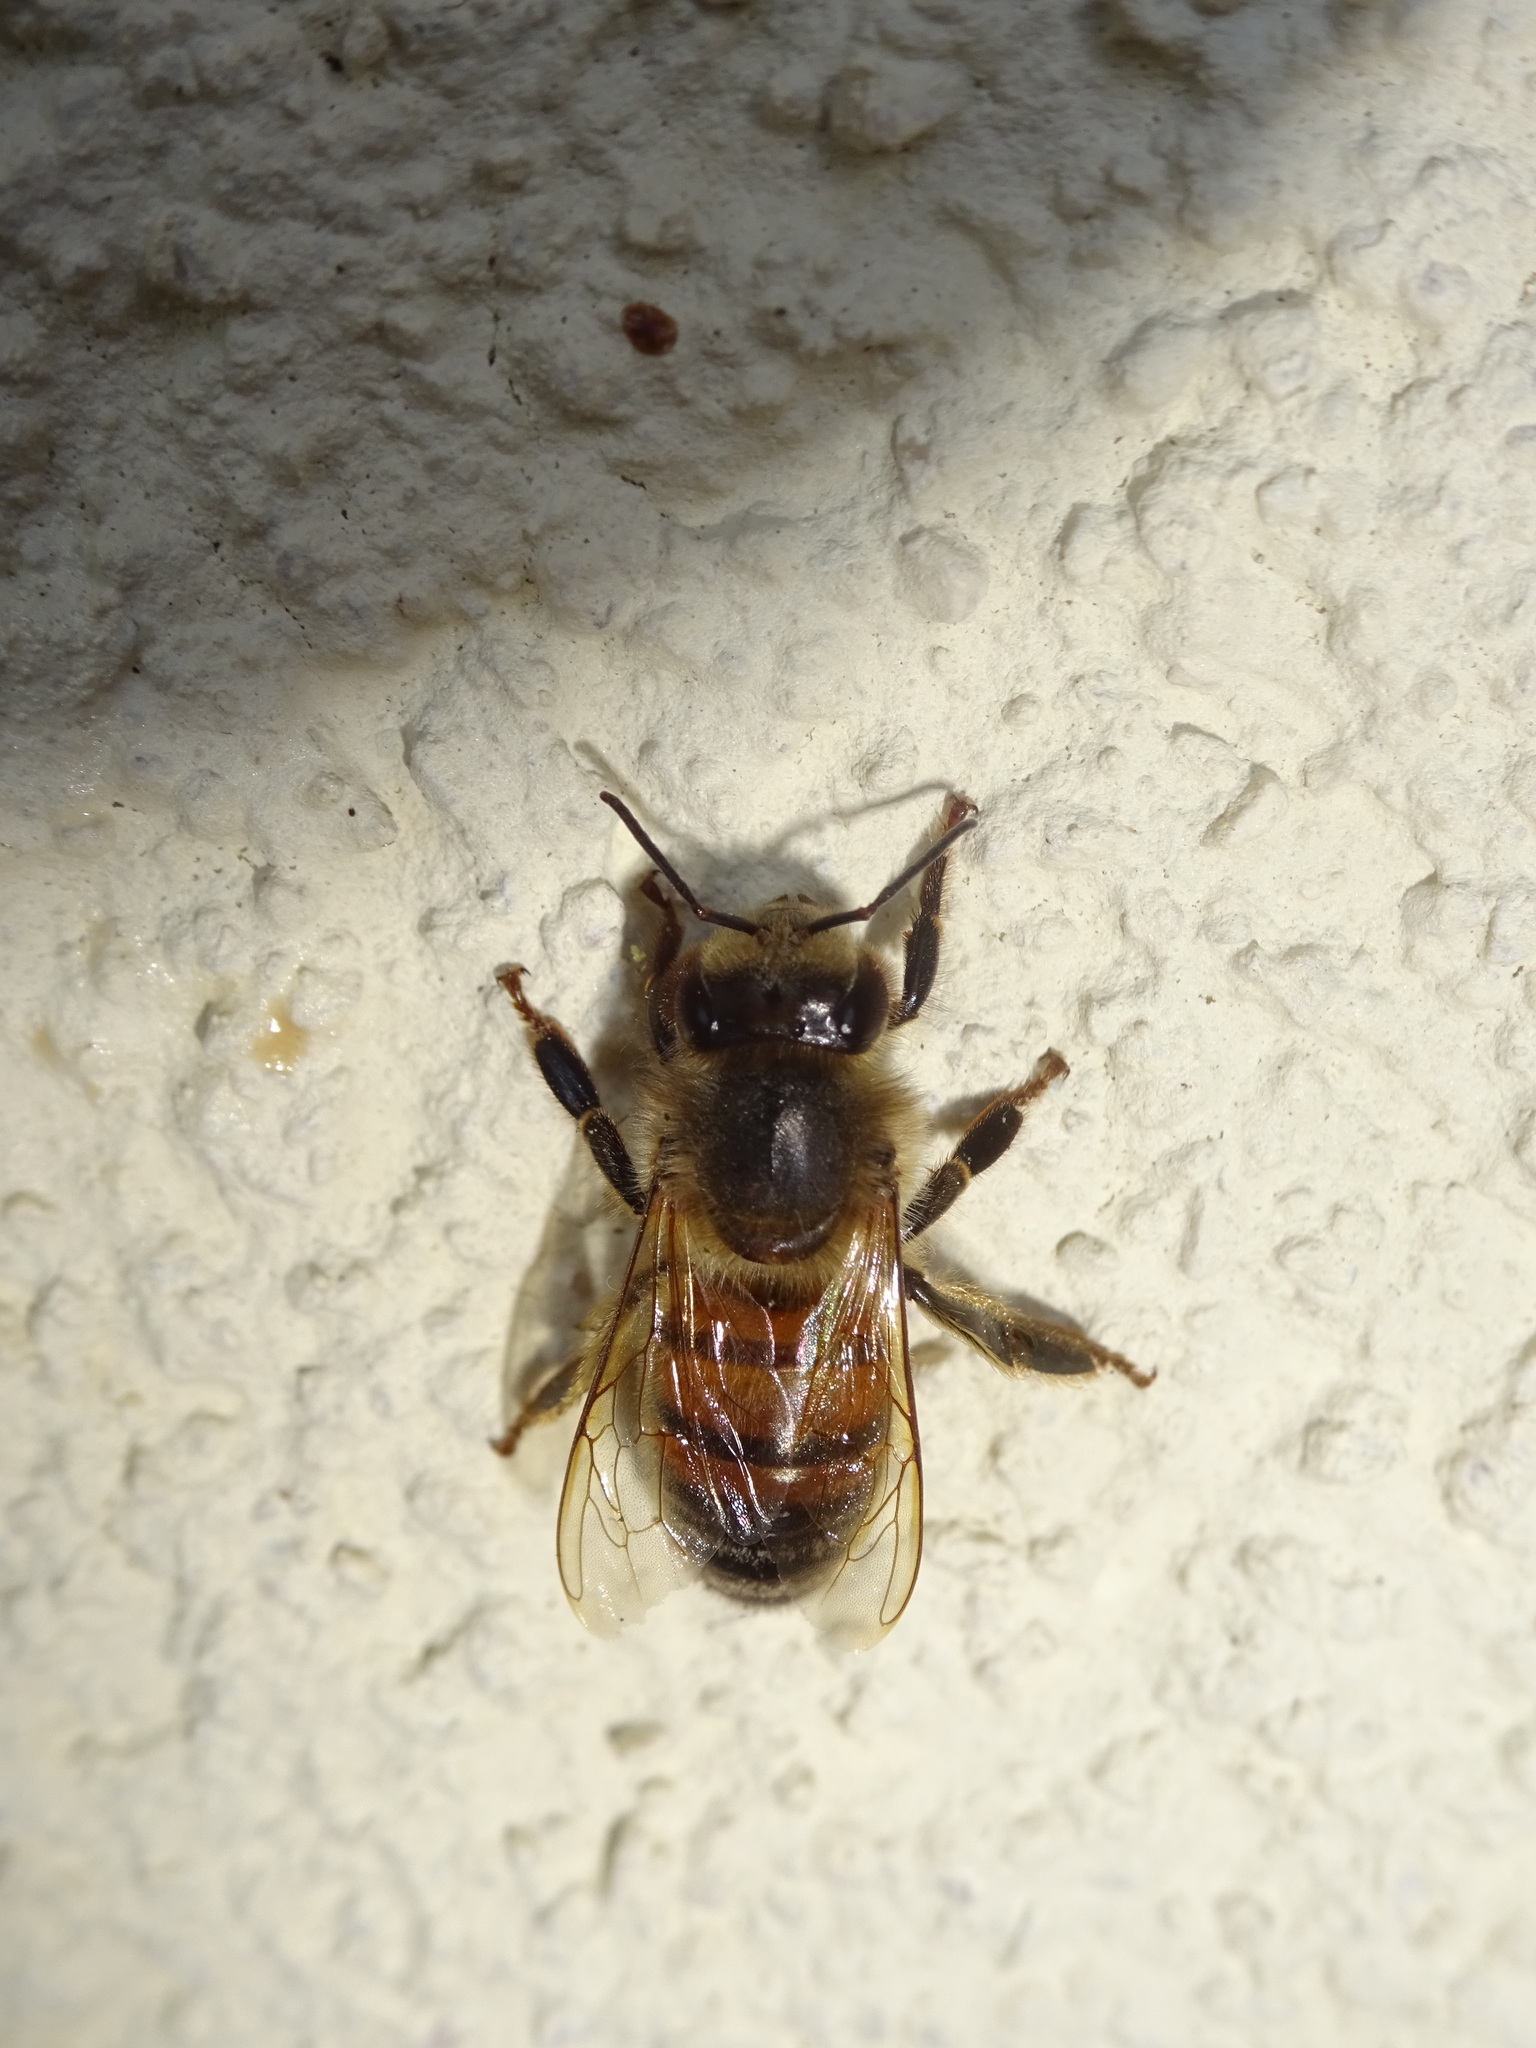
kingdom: Animalia
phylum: Arthropoda
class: Insecta
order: Hymenoptera
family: Apidae
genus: Apis
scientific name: Apis mellifera
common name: Honey bee
